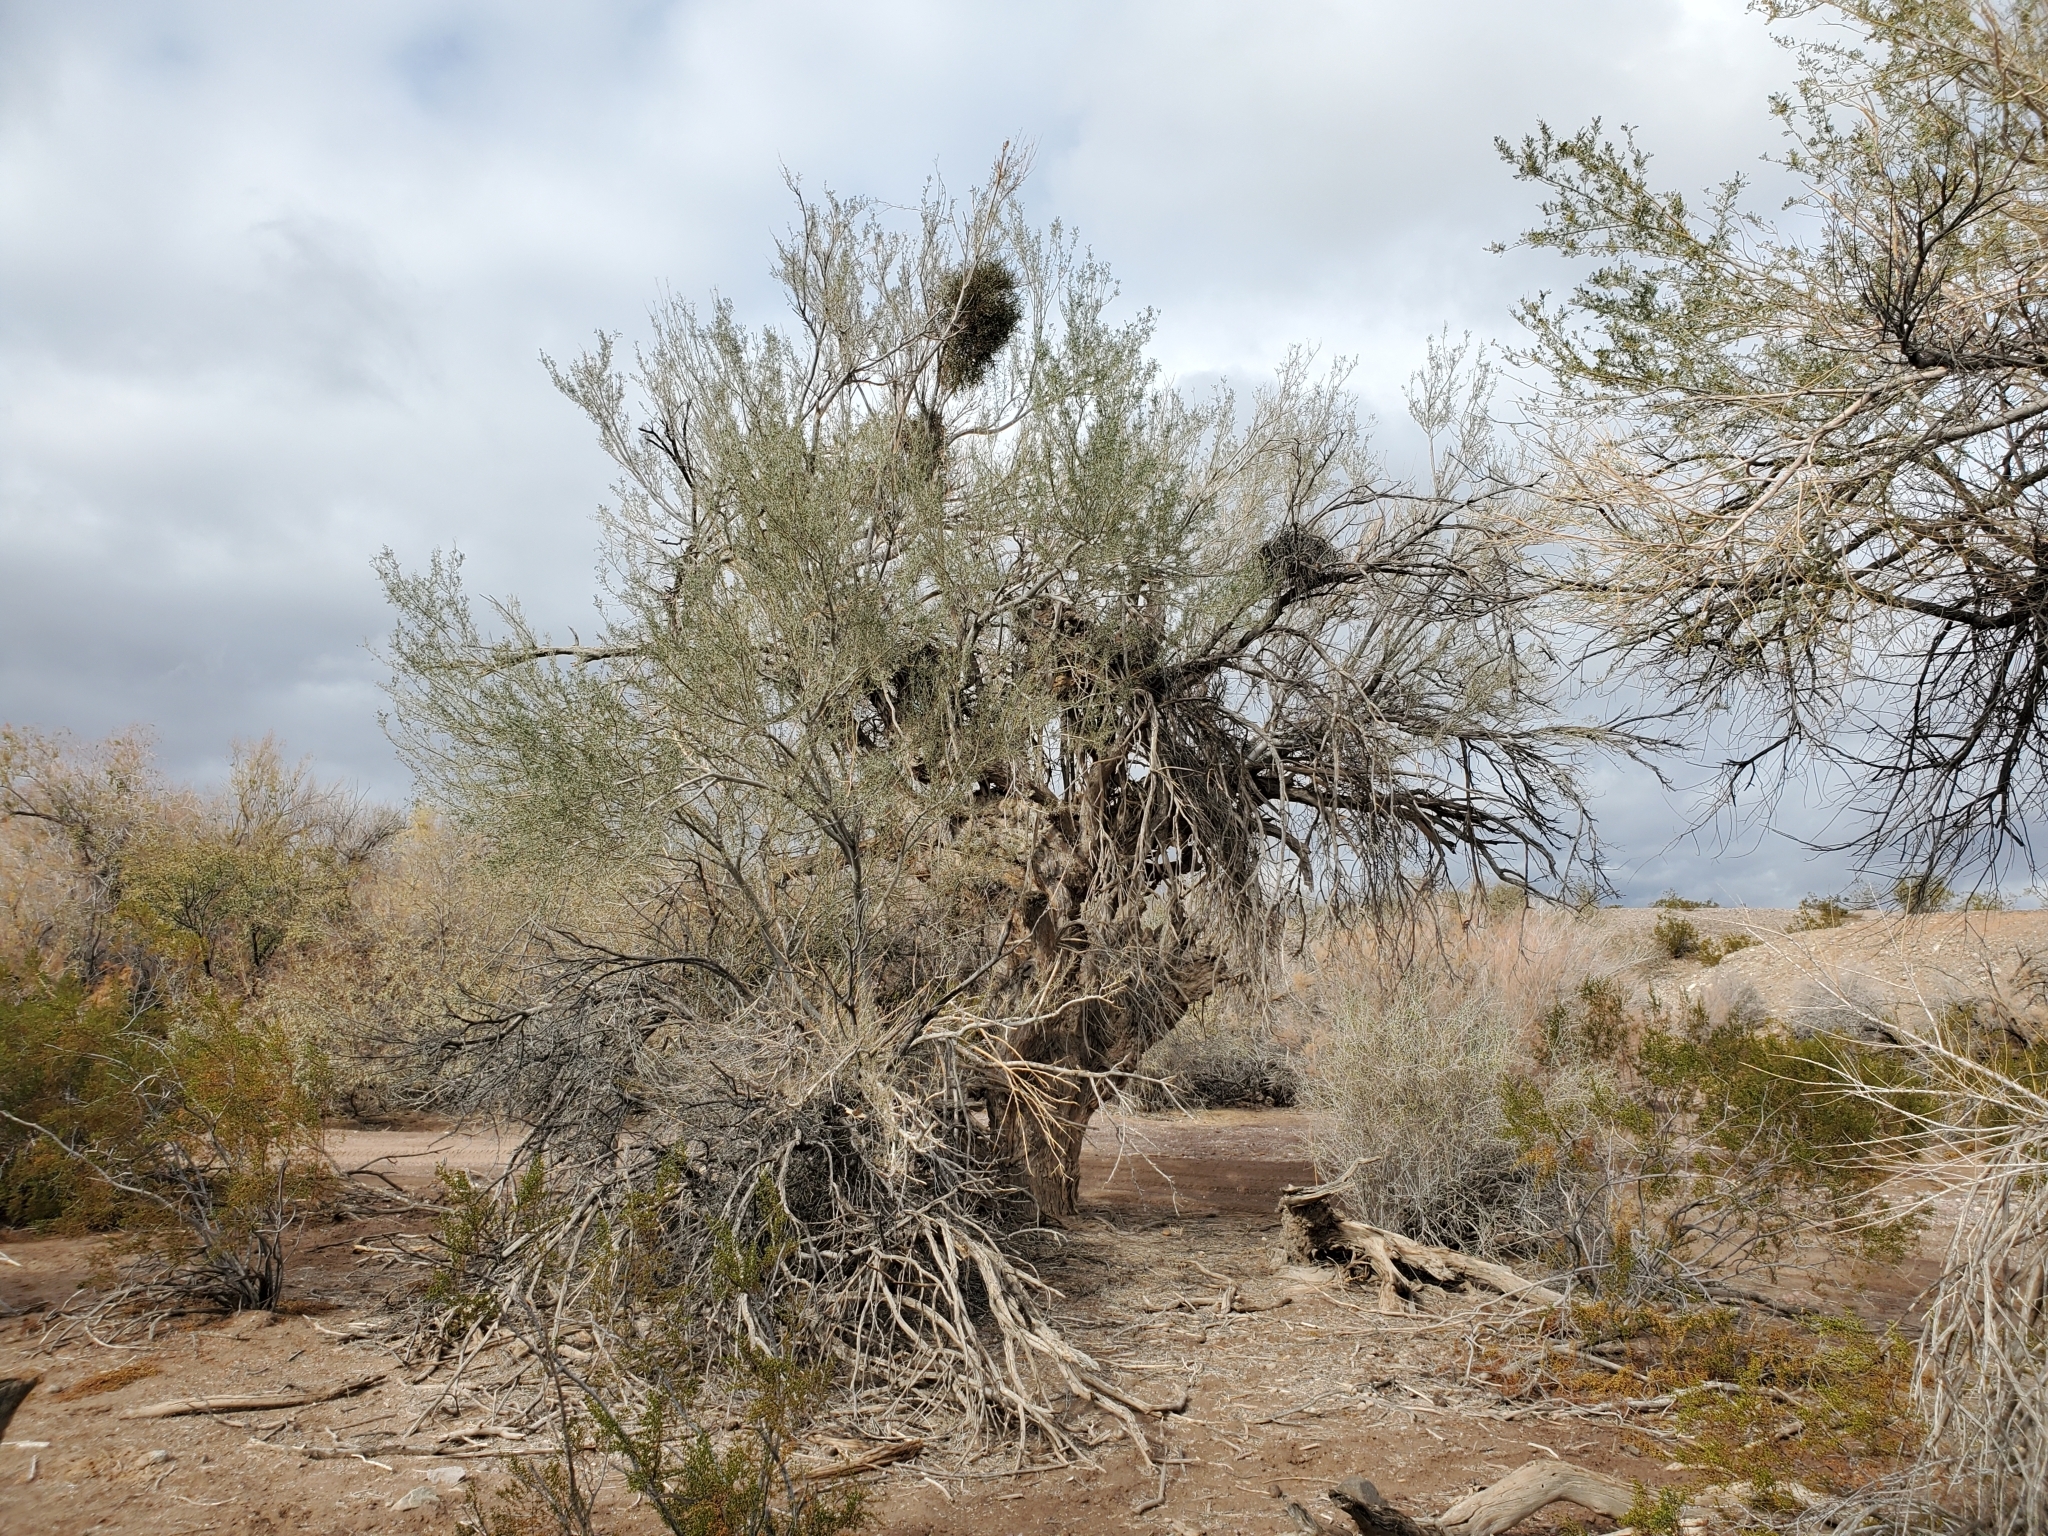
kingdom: Plantae
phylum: Tracheophyta
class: Magnoliopsida
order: Fabales
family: Fabaceae
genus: Olneya
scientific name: Olneya tesota
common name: Desert ironwood
